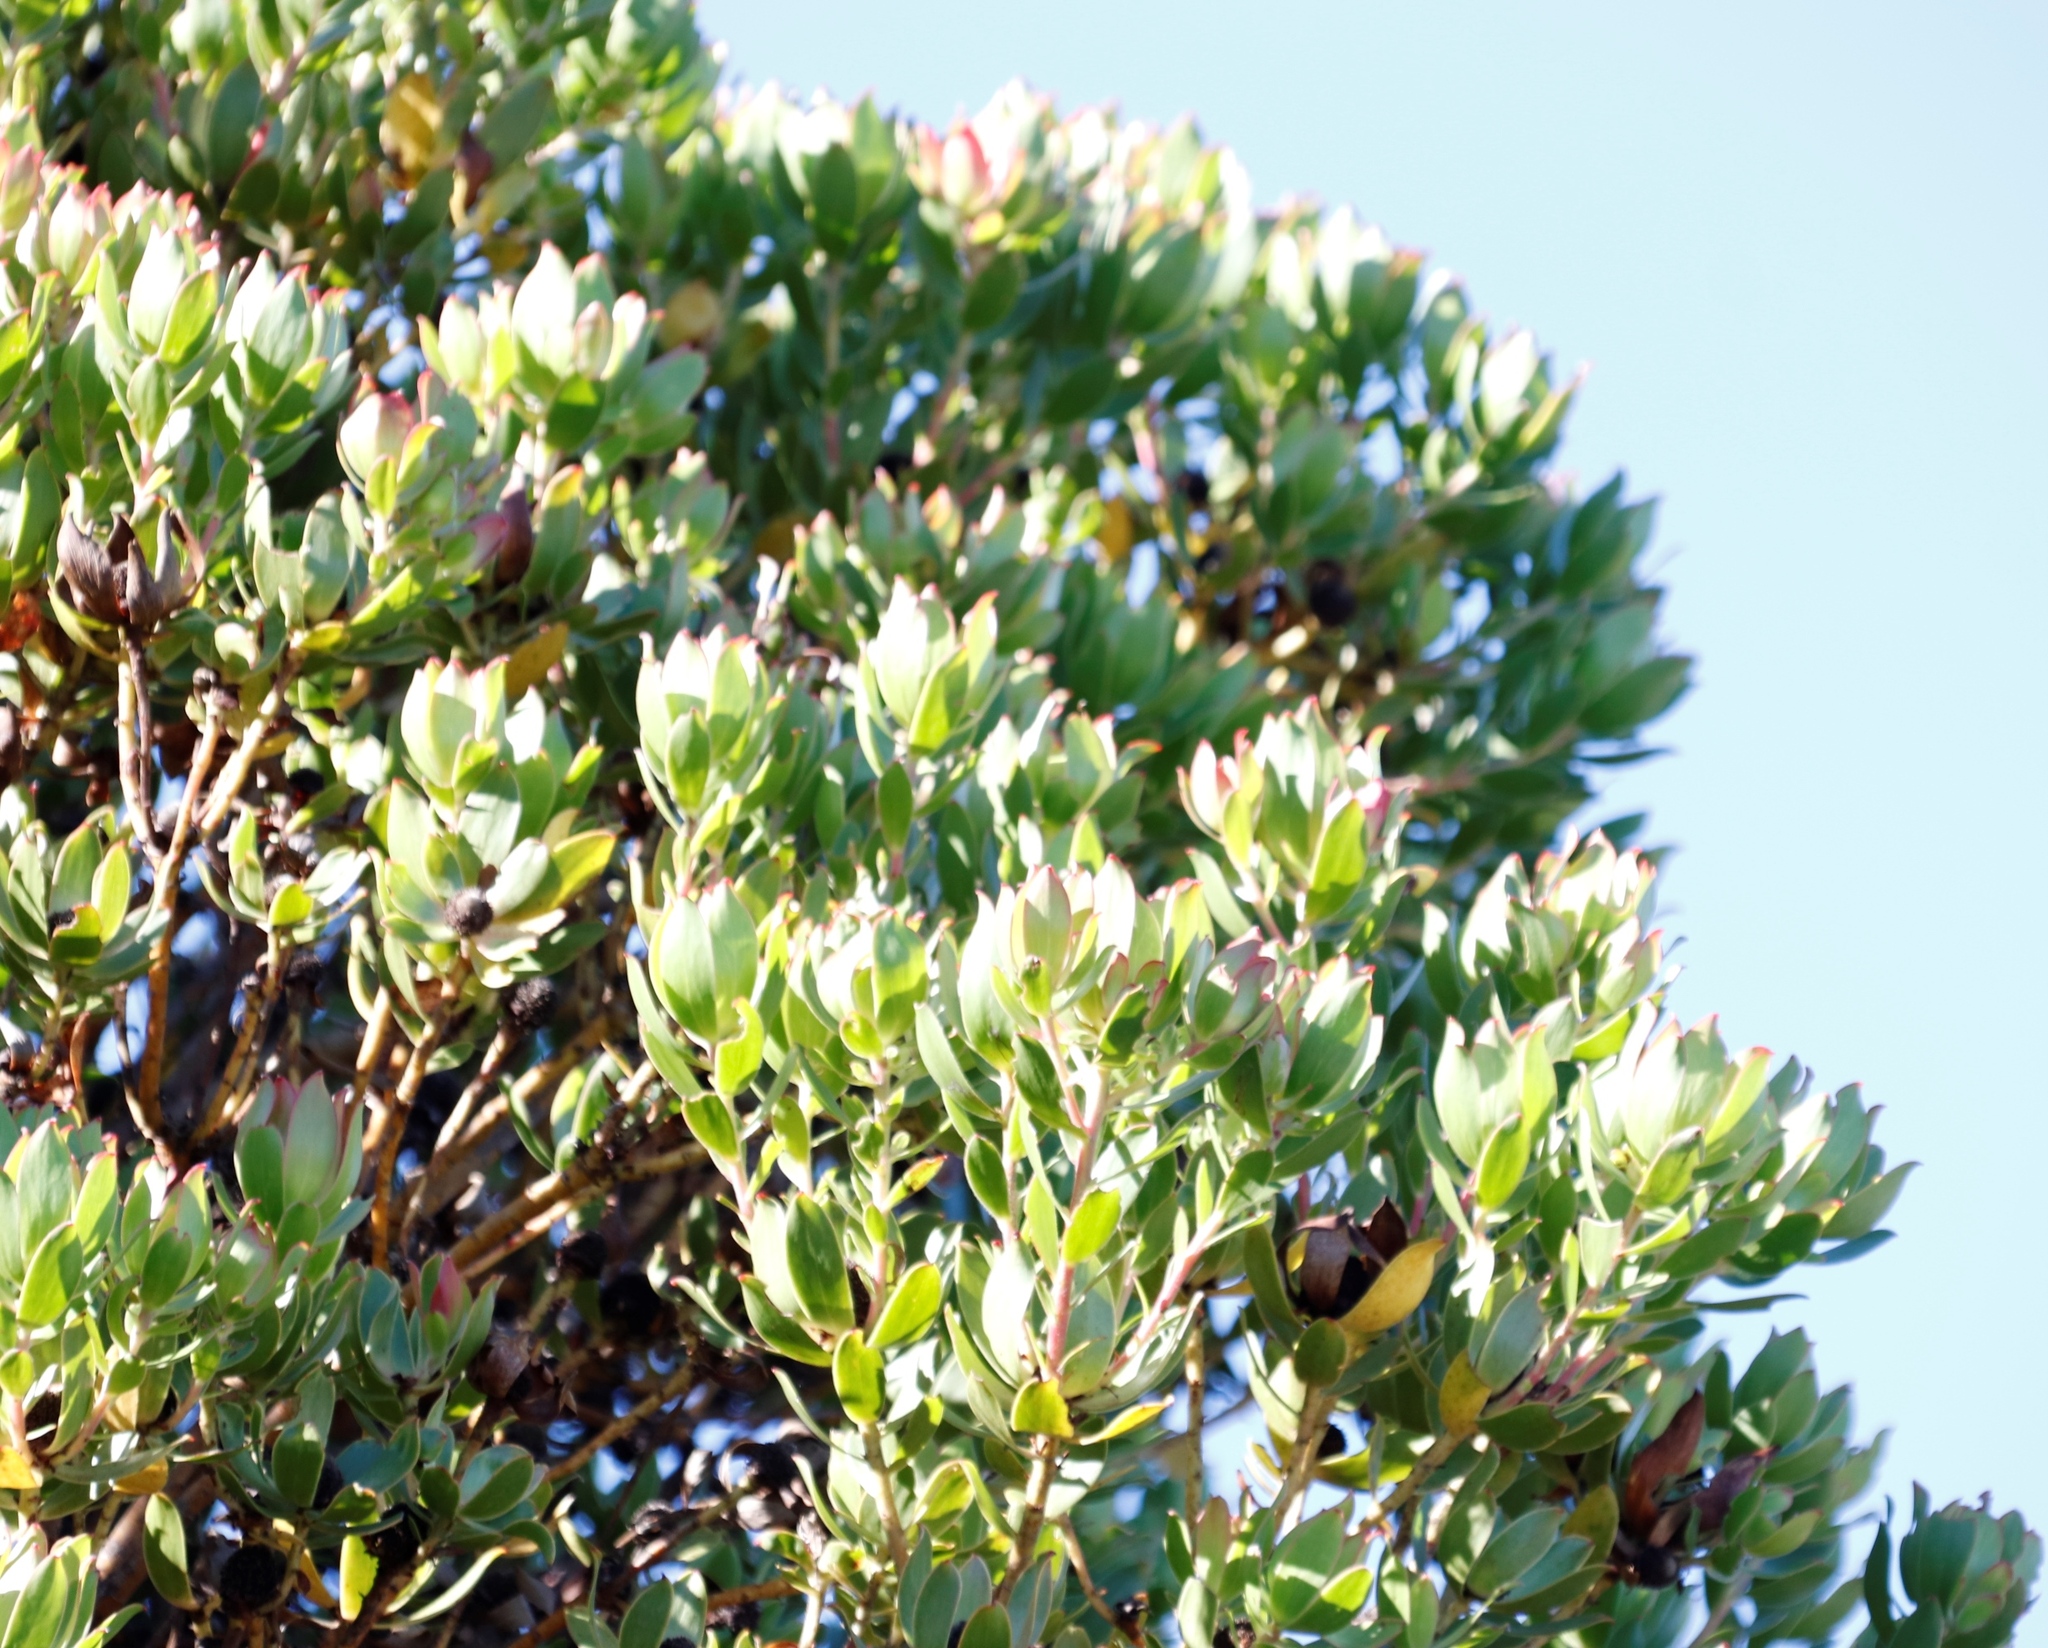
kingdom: Plantae
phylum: Tracheophyta
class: Magnoliopsida
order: Proteales
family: Proteaceae
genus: Leucadendron
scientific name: Leucadendron strobilinum
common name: Mountain rose
